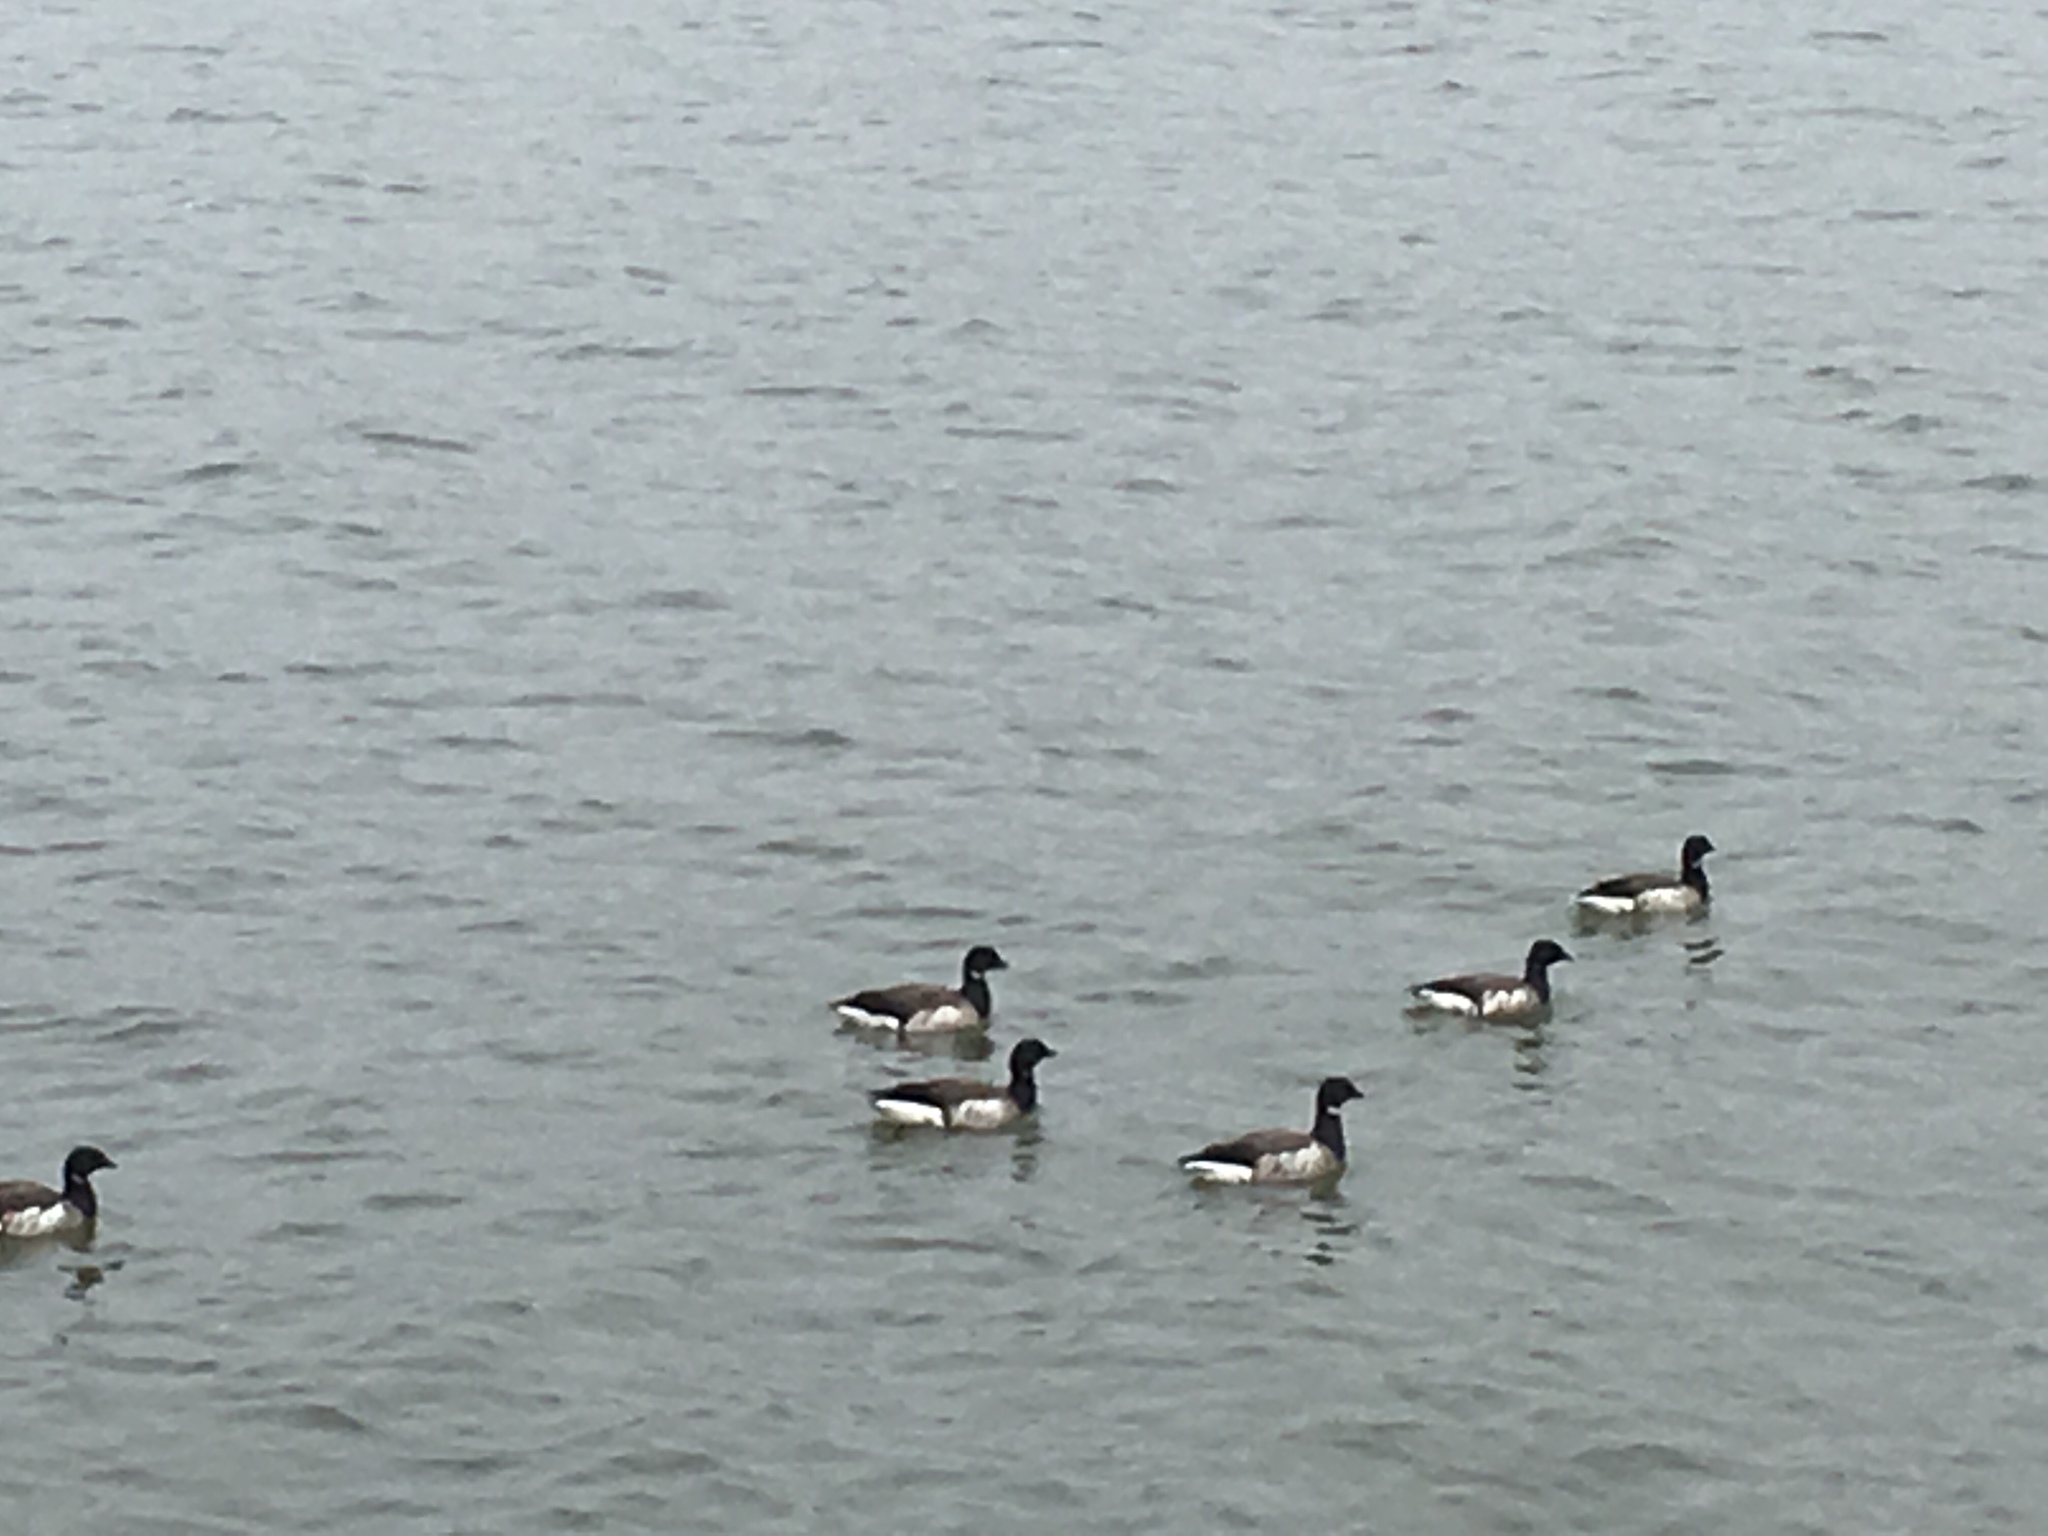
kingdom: Animalia
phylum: Chordata
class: Aves
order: Anseriformes
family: Anatidae
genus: Branta
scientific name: Branta bernicla
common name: Brant goose
